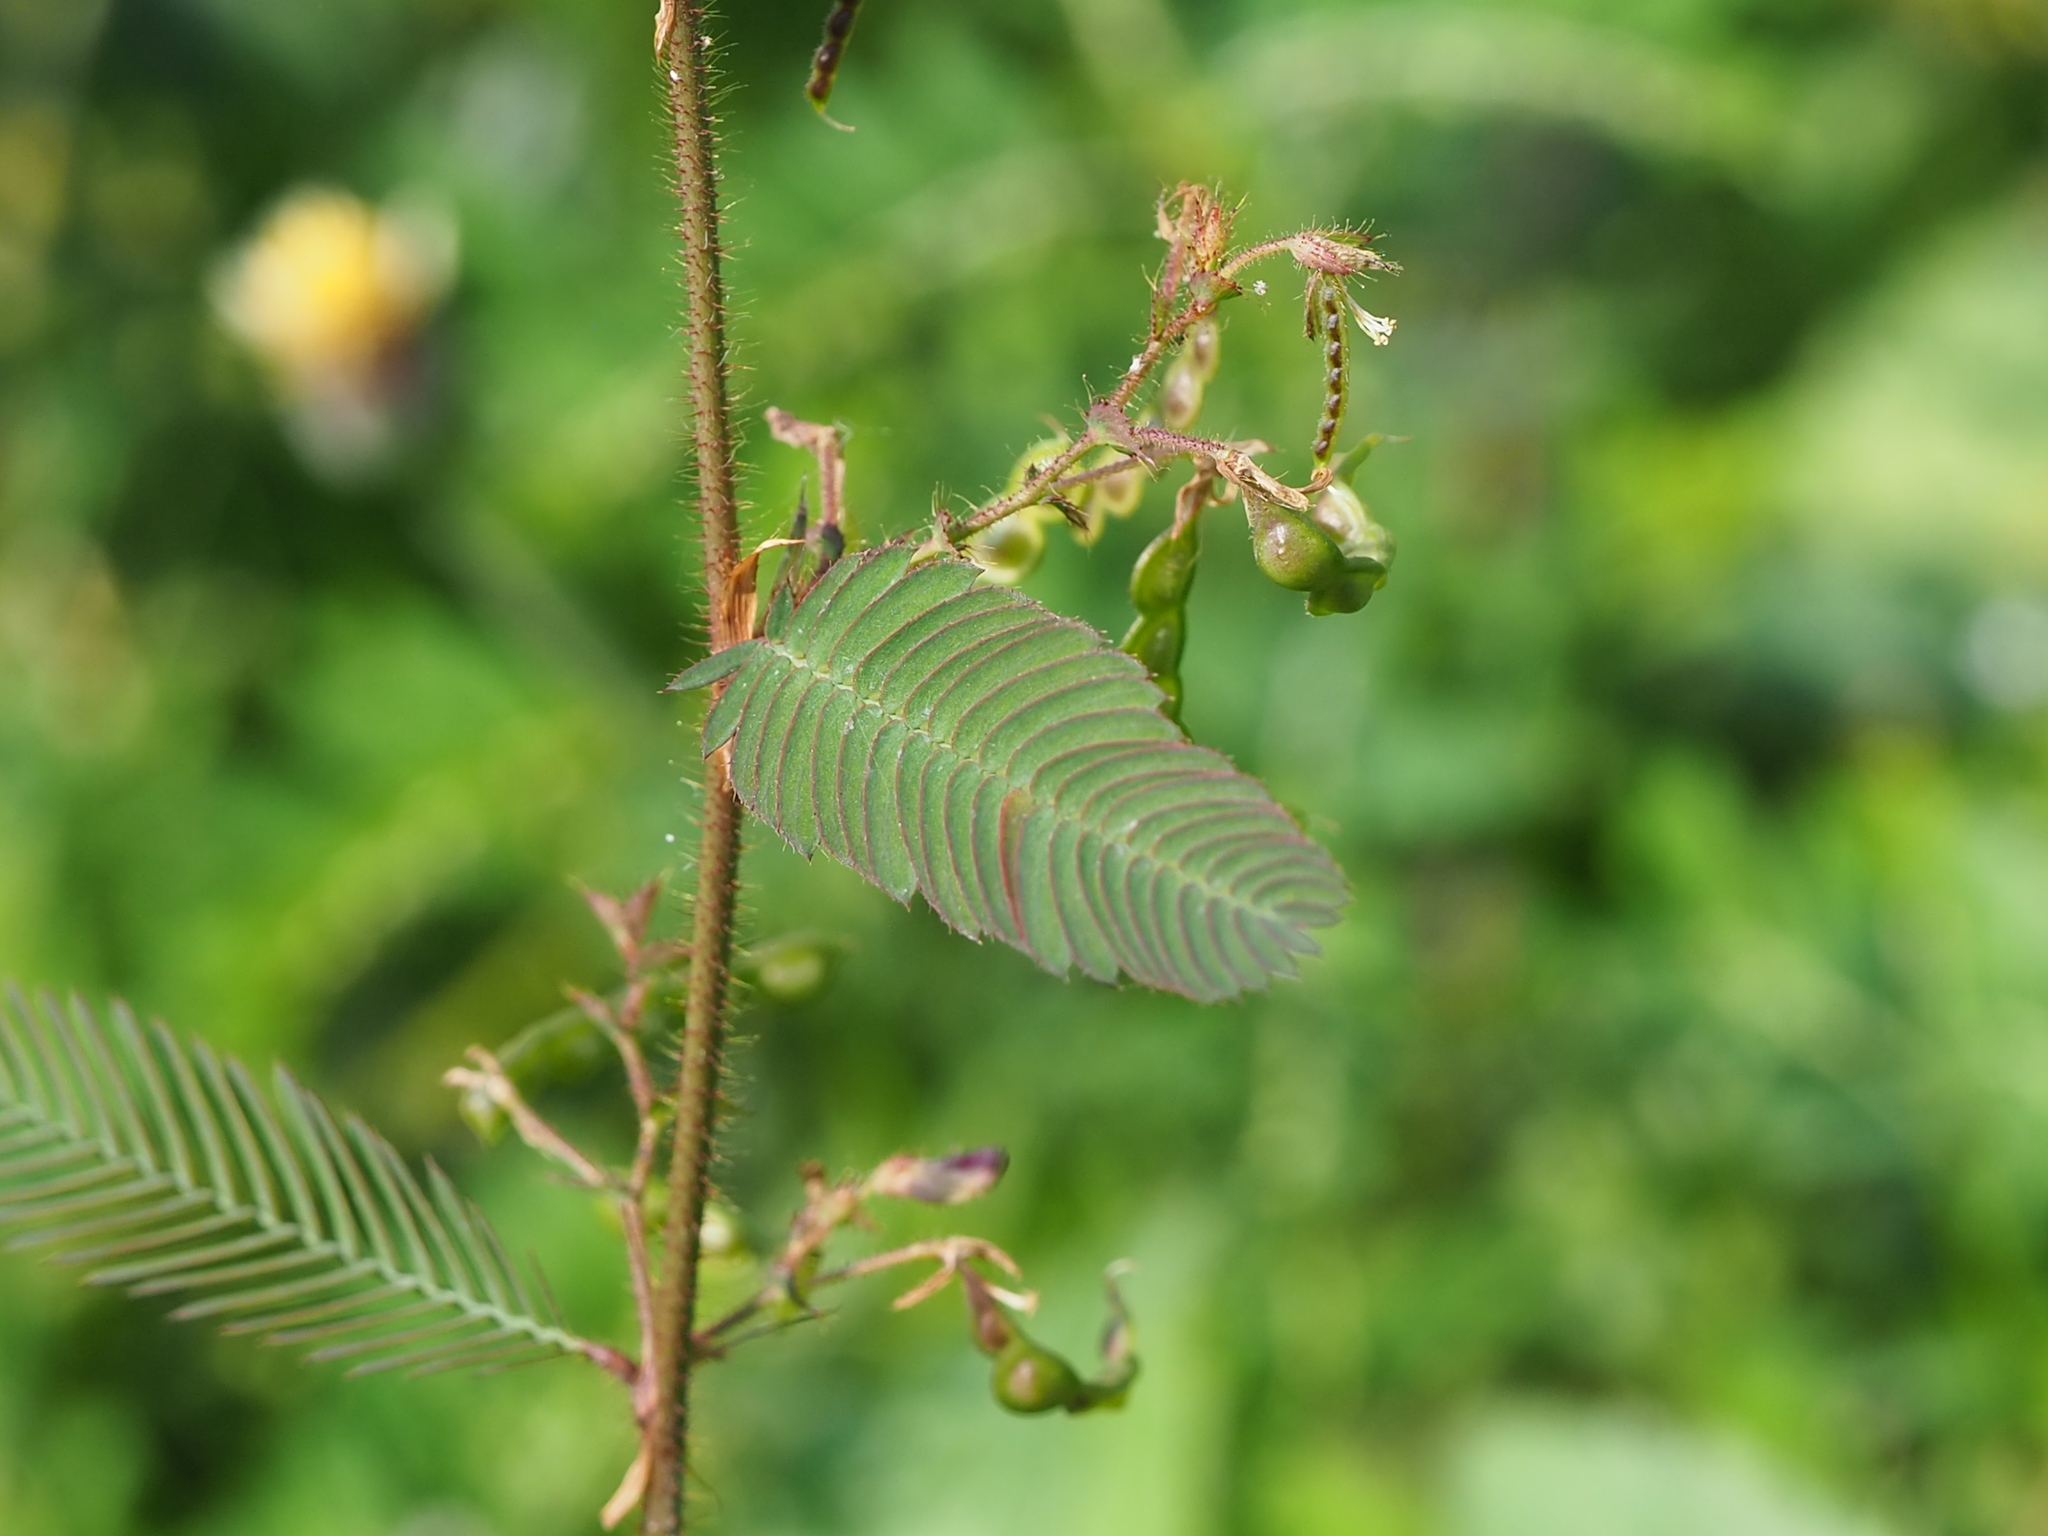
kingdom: Plantae
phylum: Tracheophyta
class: Magnoliopsida
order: Fabales
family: Fabaceae
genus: Aeschynomene
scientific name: Aeschynomene americana
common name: Joint-vetch
